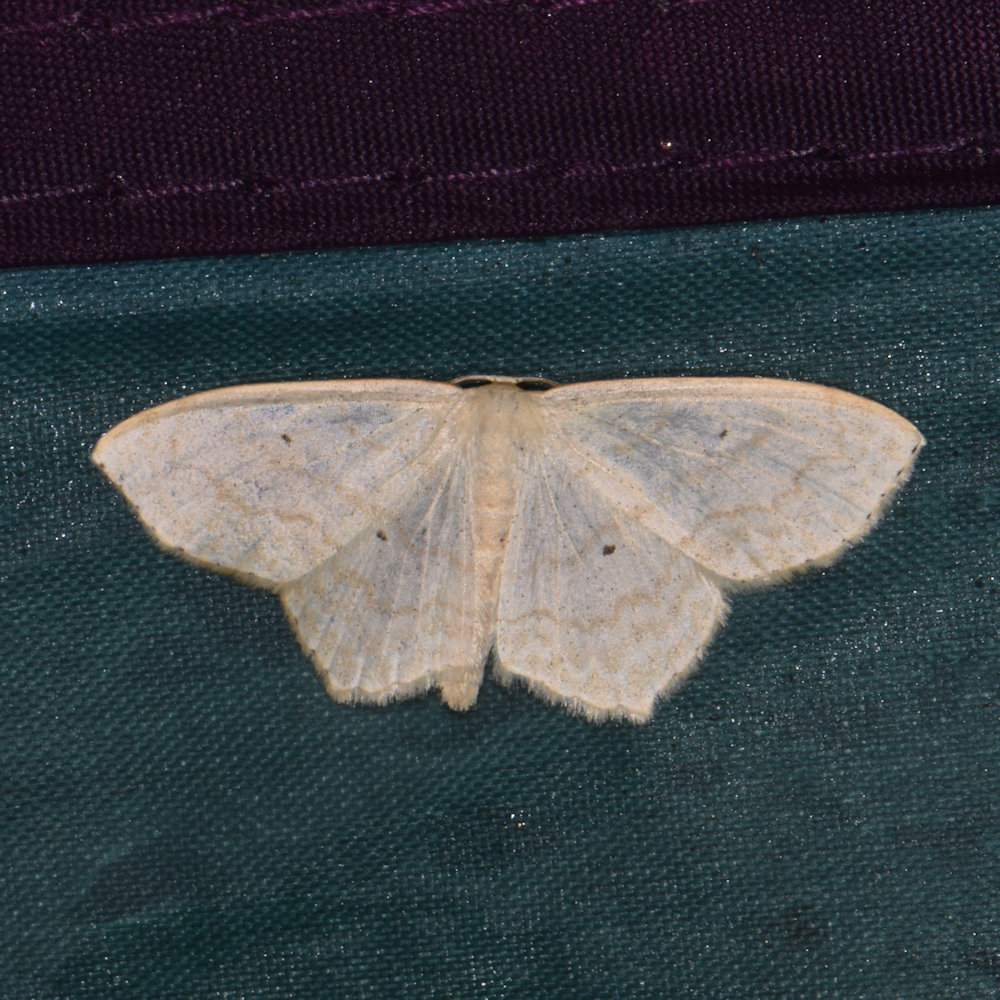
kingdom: Animalia
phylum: Arthropoda
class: Insecta
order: Lepidoptera
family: Geometridae
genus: Scopula
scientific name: Scopula limboundata
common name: Large lace border
